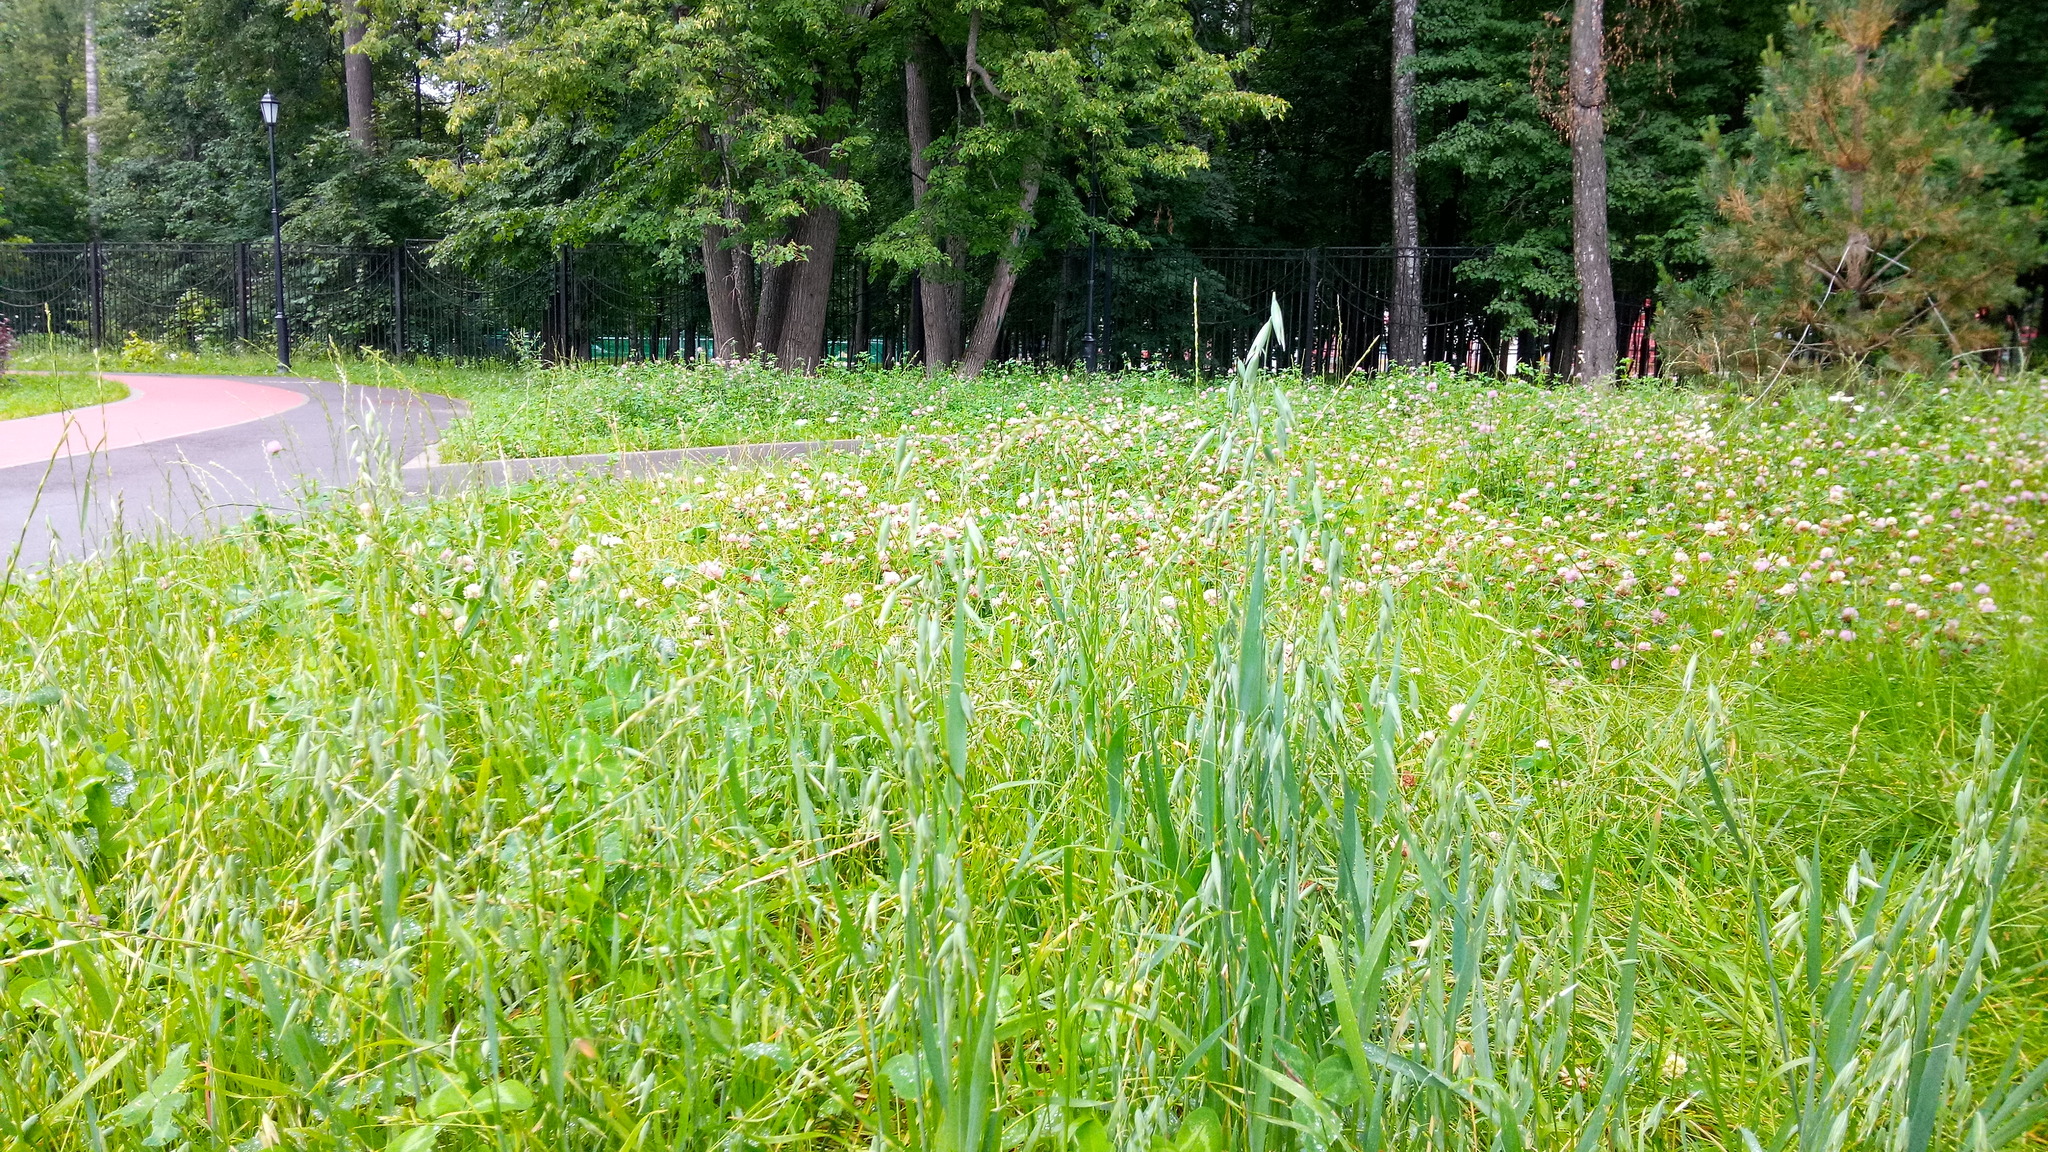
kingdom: Plantae
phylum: Tracheophyta
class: Liliopsida
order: Poales
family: Poaceae
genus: Avena
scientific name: Avena sativa
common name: Oat
